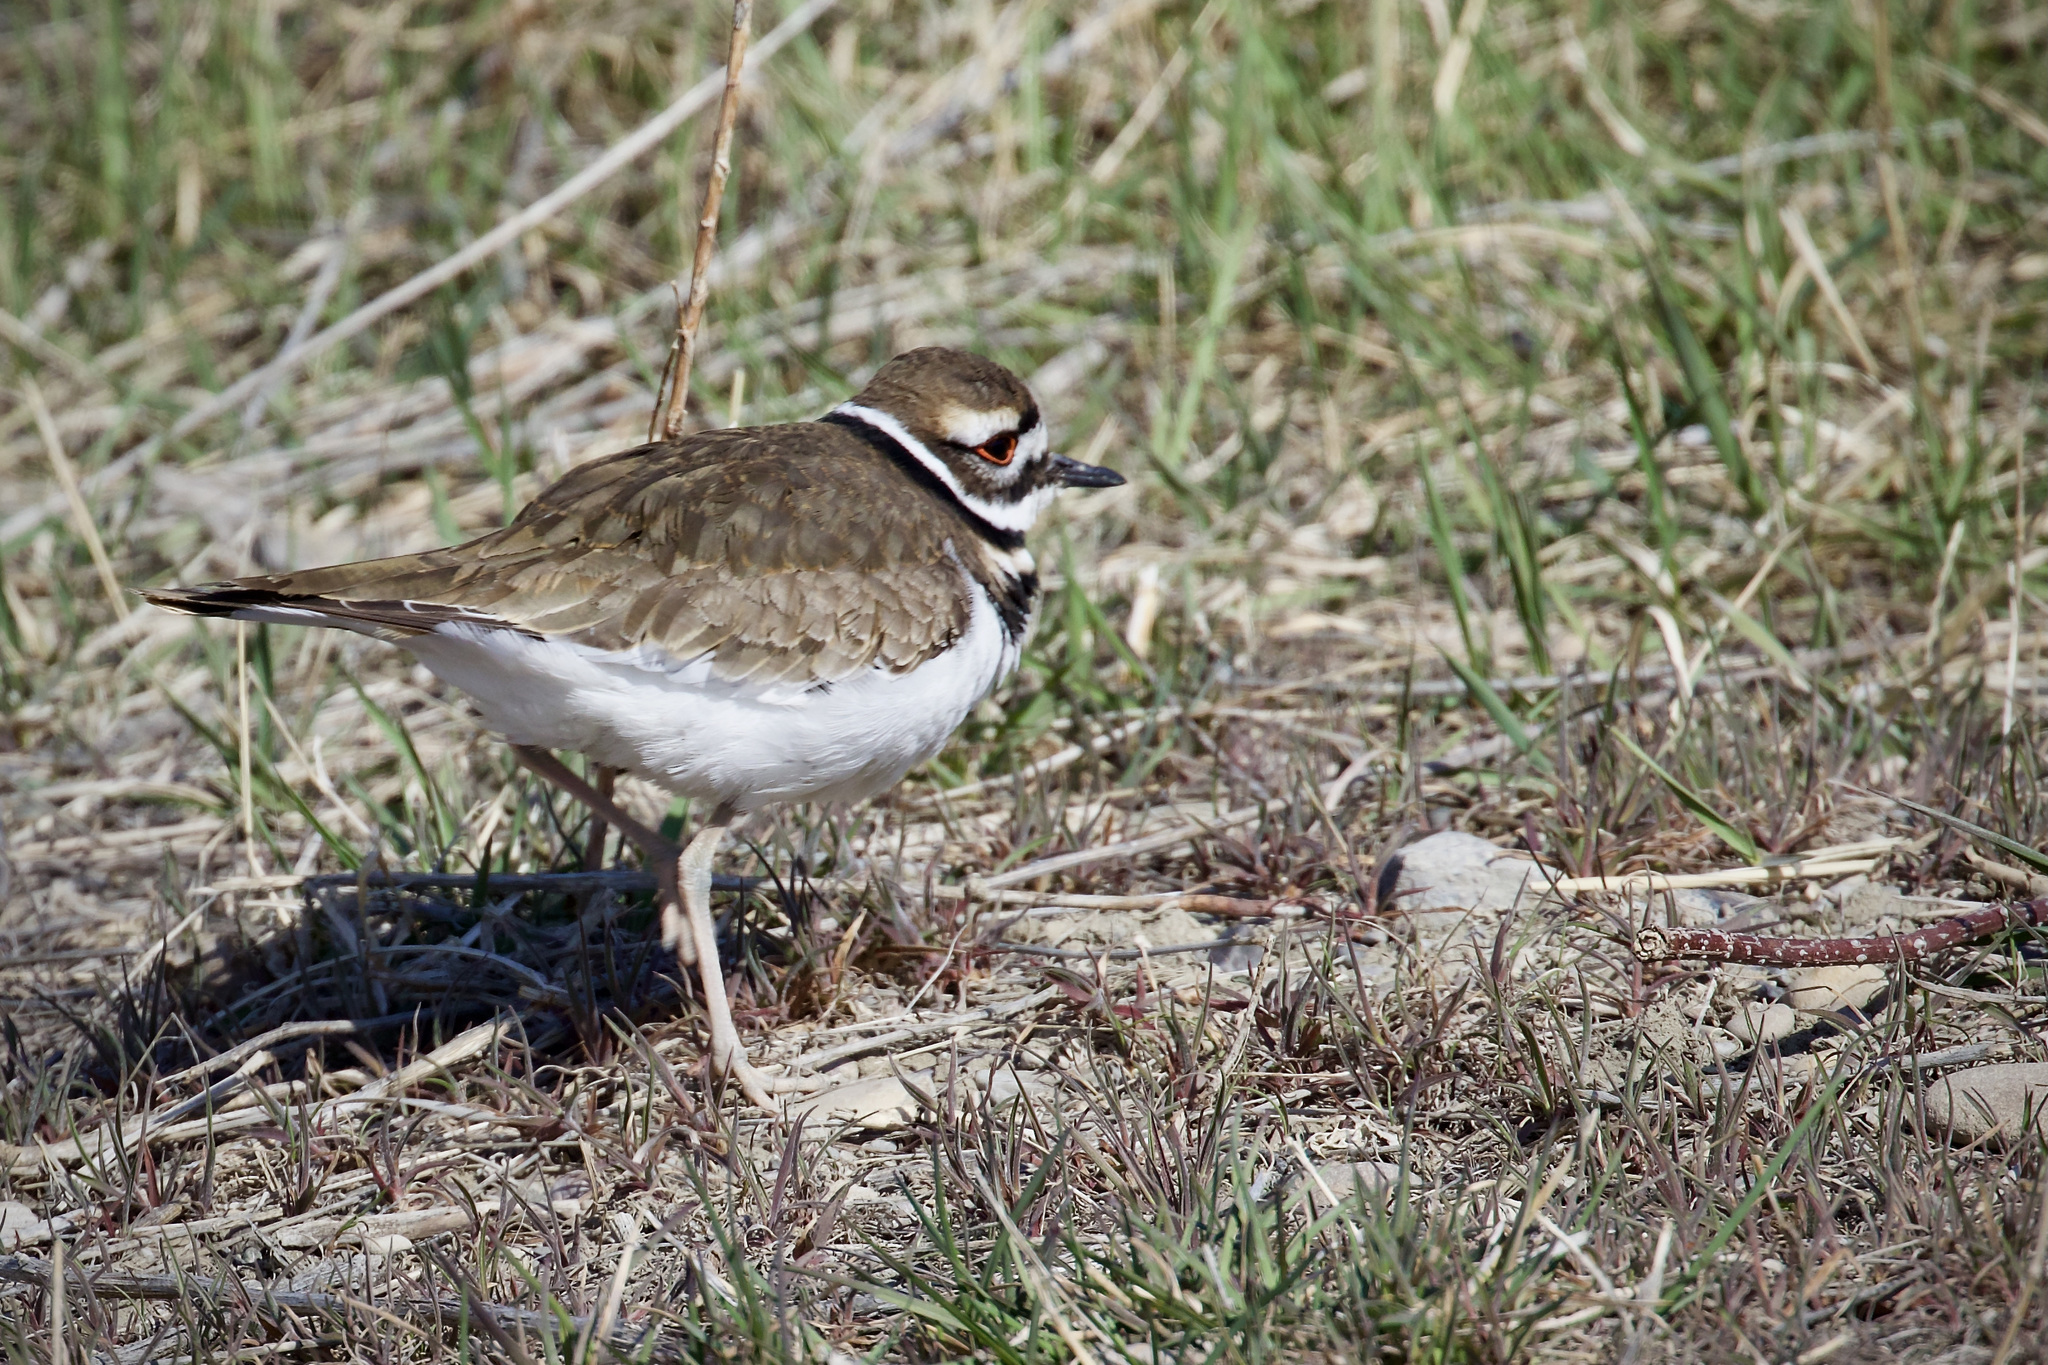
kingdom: Animalia
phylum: Chordata
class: Aves
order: Charadriiformes
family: Charadriidae
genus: Charadrius
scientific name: Charadrius vociferus
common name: Killdeer
